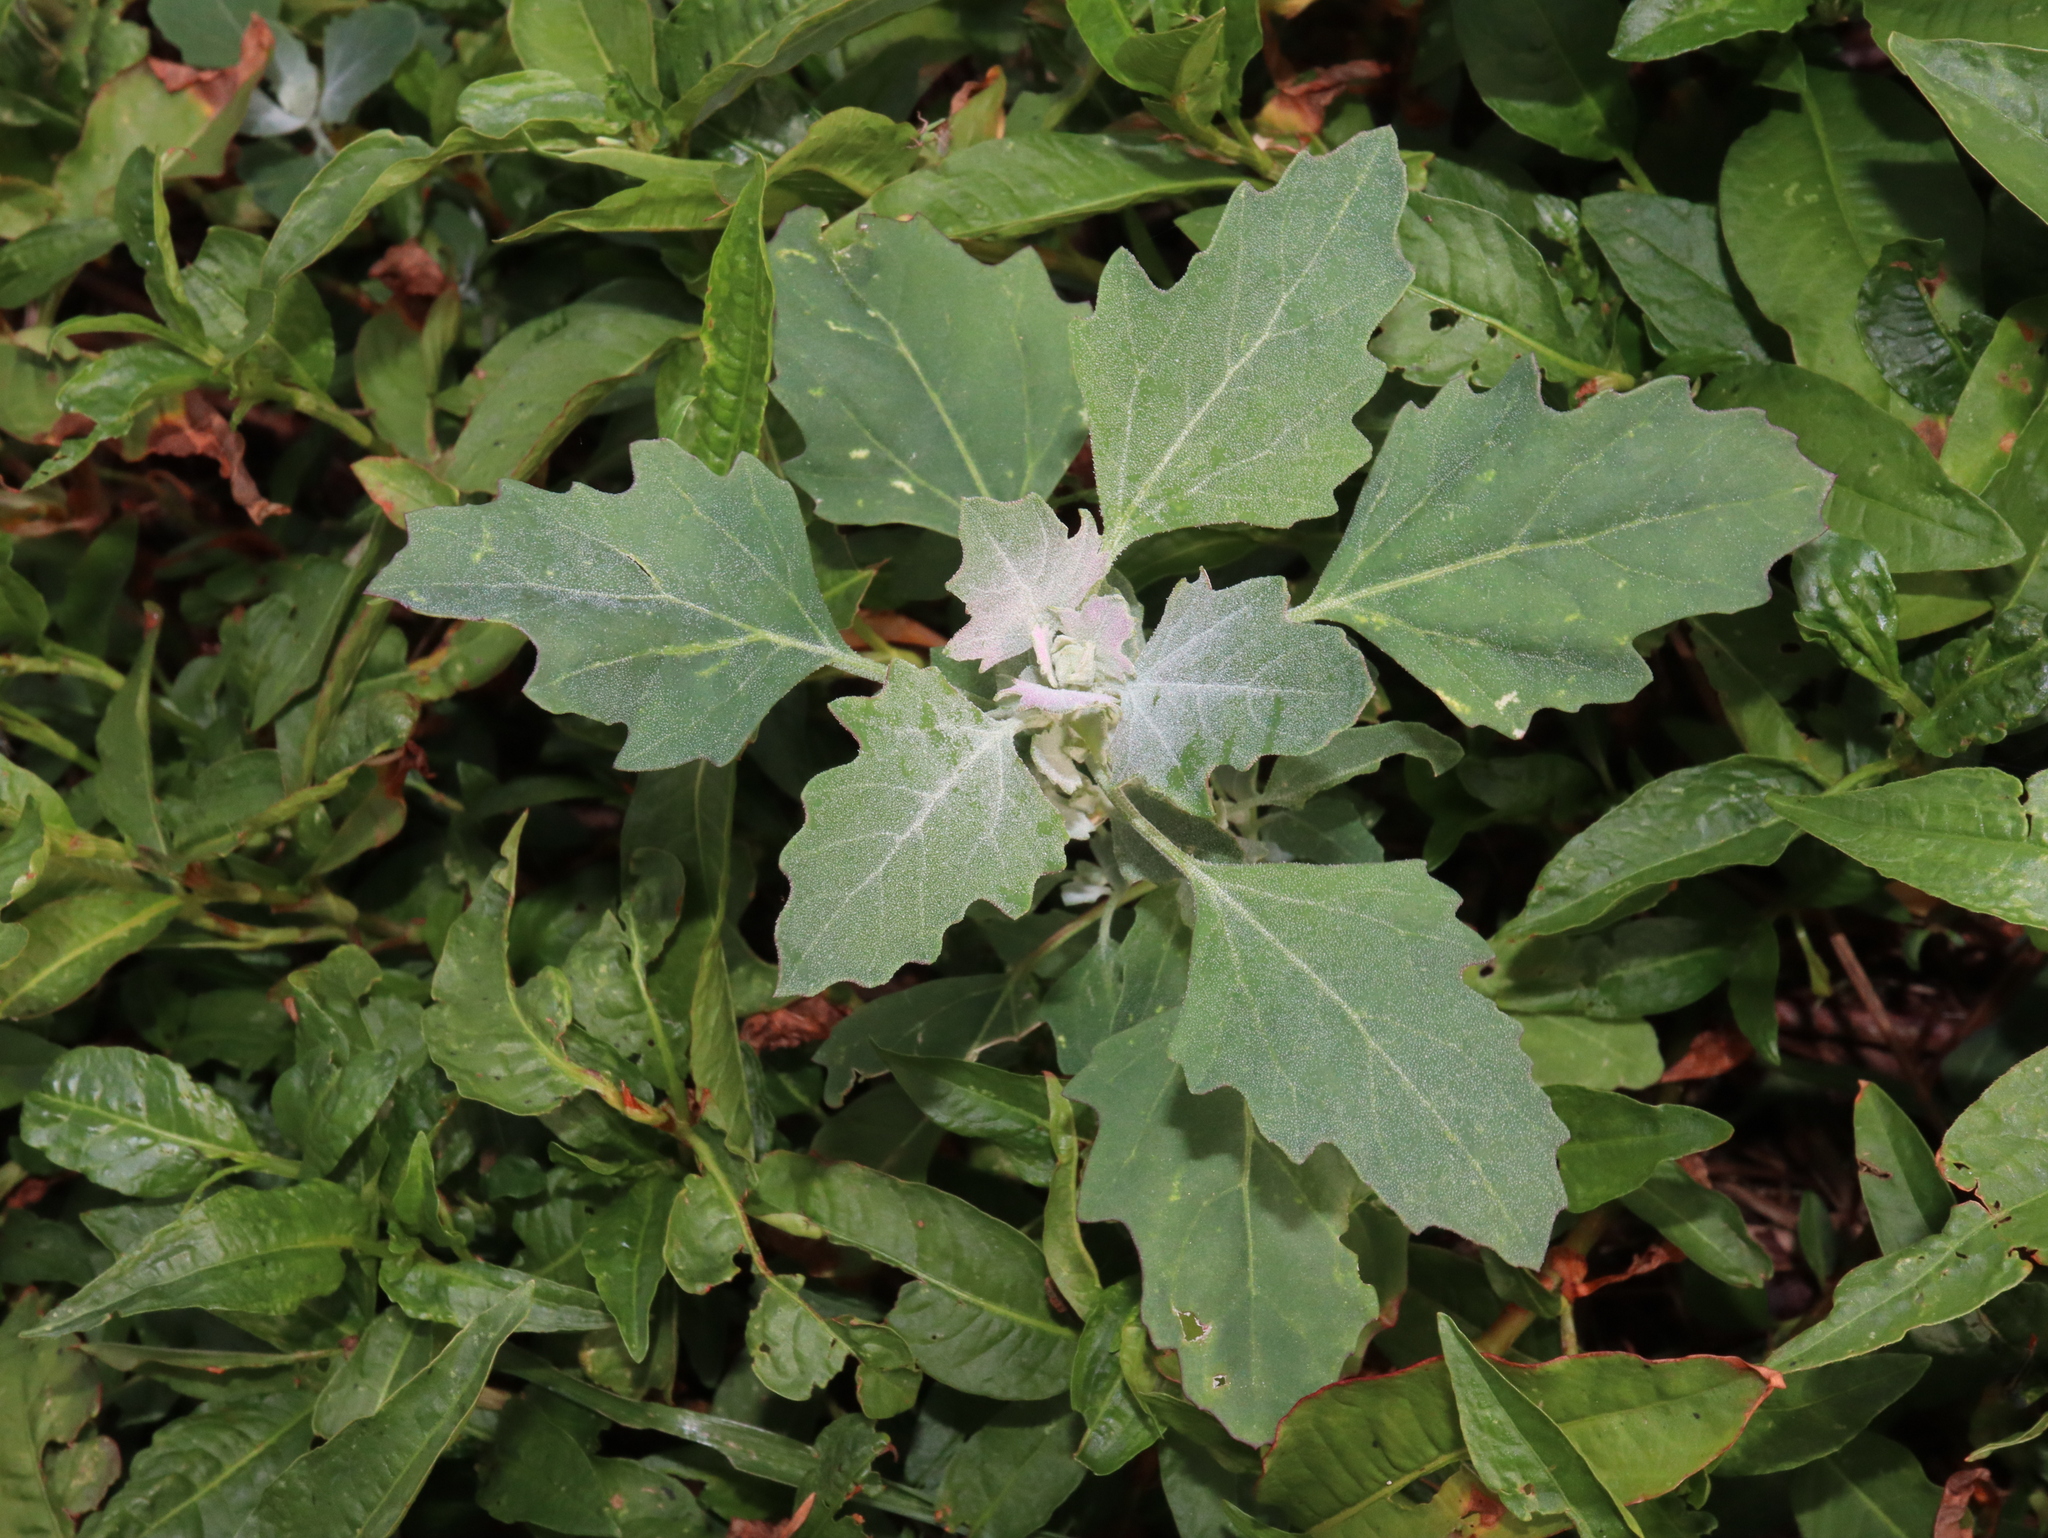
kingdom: Plantae
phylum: Tracheophyta
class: Magnoliopsida
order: Caryophyllales
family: Amaranthaceae
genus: Chenopodium
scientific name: Chenopodium album
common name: Fat-hen
